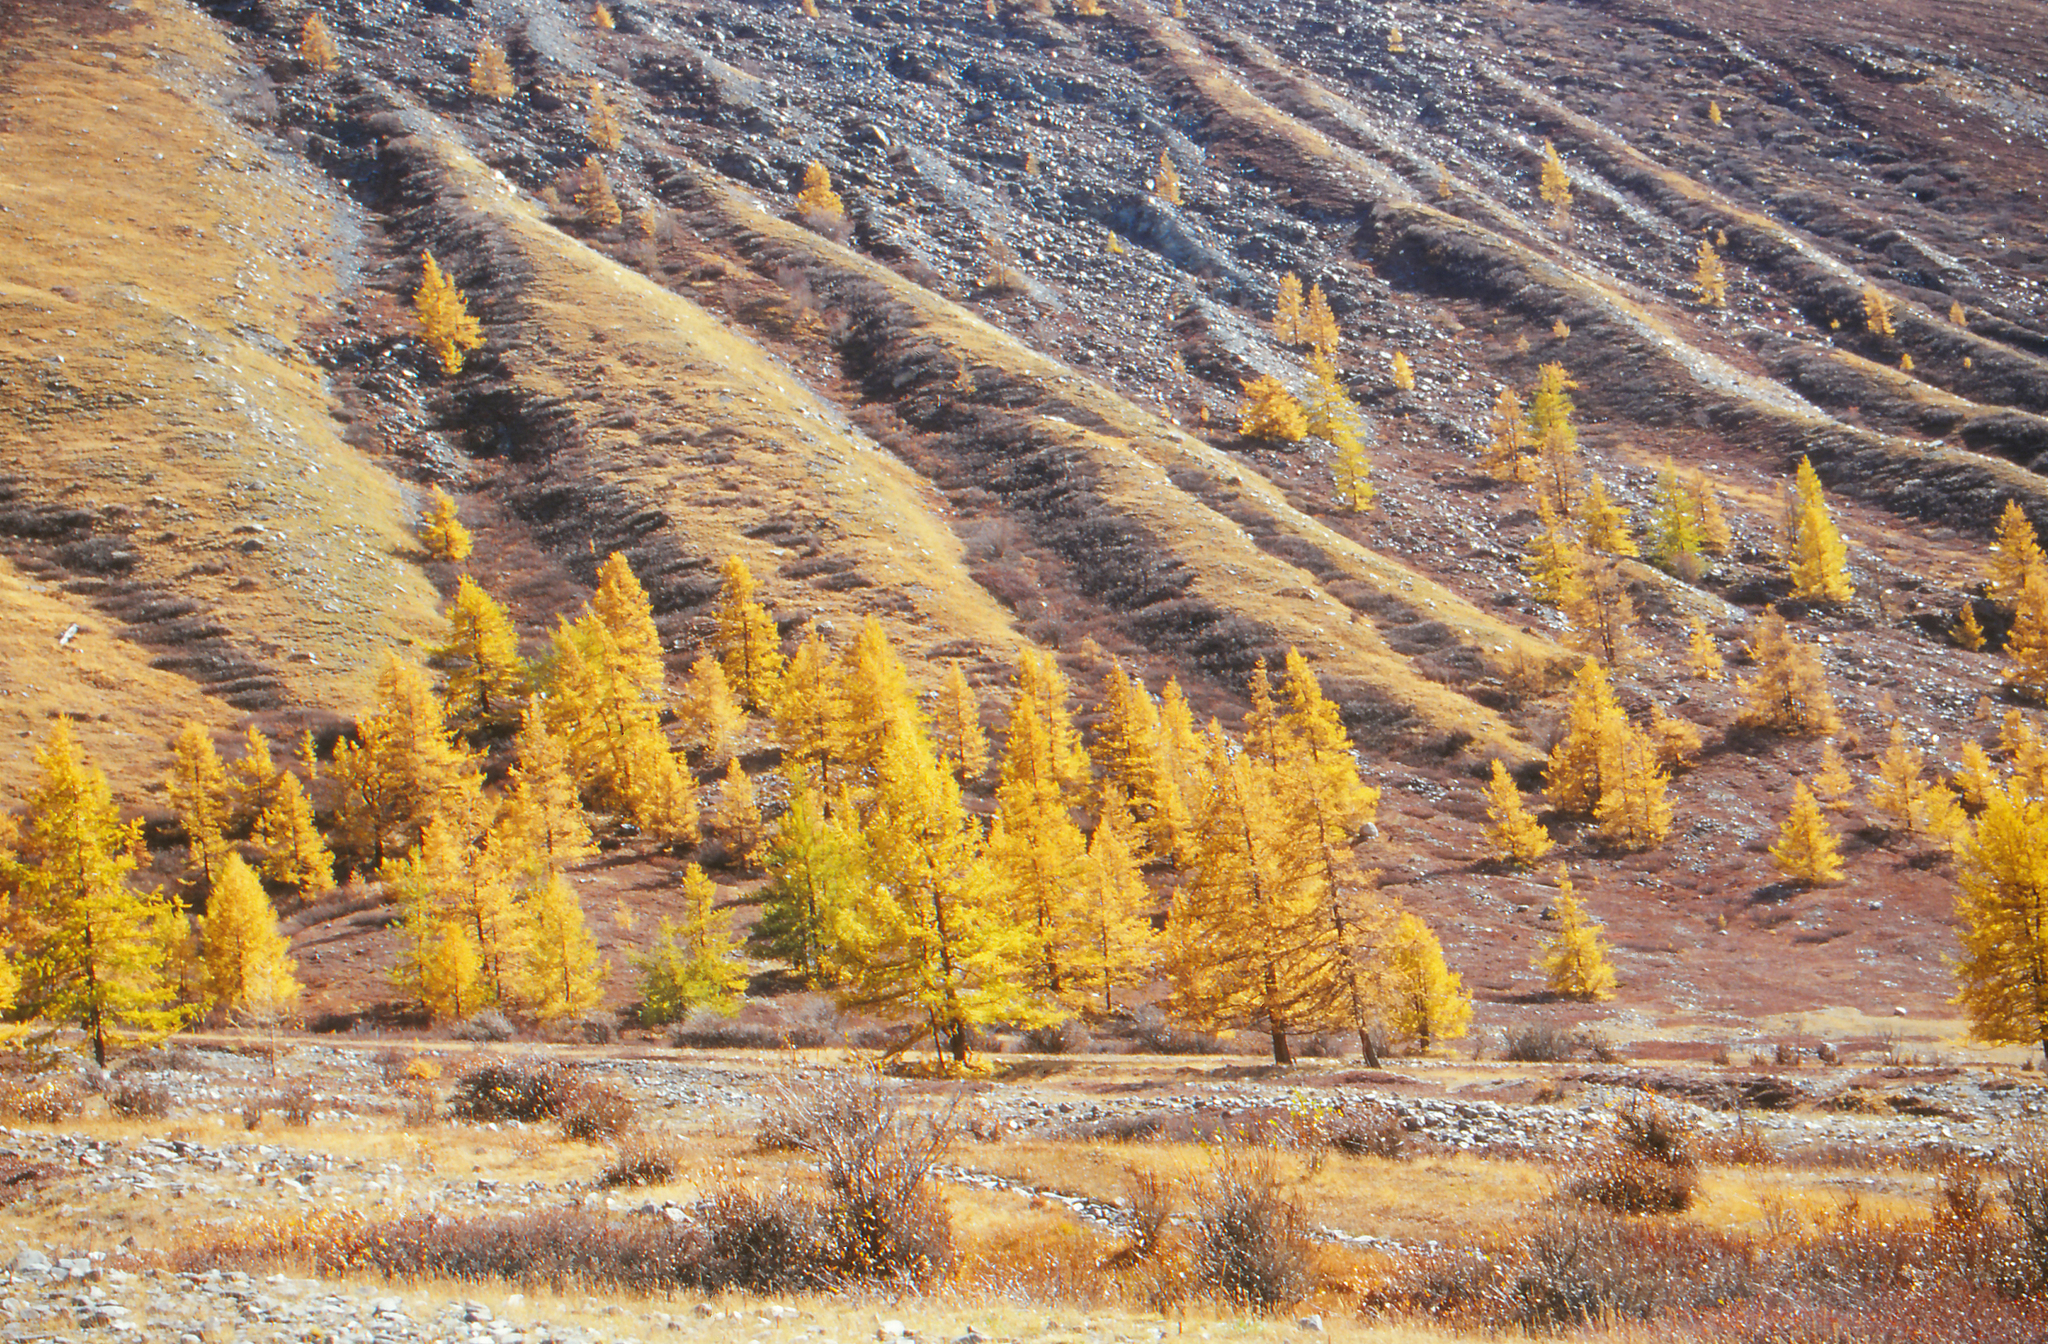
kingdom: Plantae
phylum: Tracheophyta
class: Pinopsida
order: Pinales
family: Pinaceae
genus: Larix
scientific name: Larix sibirica
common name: Siberian larch
